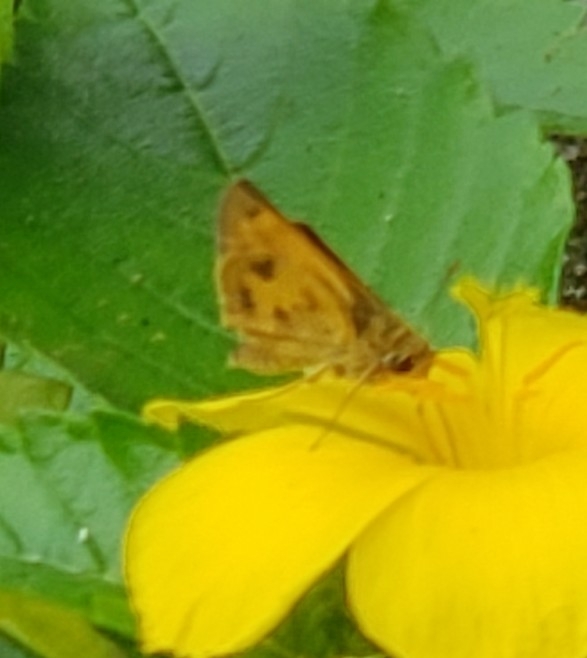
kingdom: Animalia
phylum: Arthropoda
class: Insecta
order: Lepidoptera
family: Hesperiidae
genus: Polites
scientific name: Polites vibex
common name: Whirlabout
